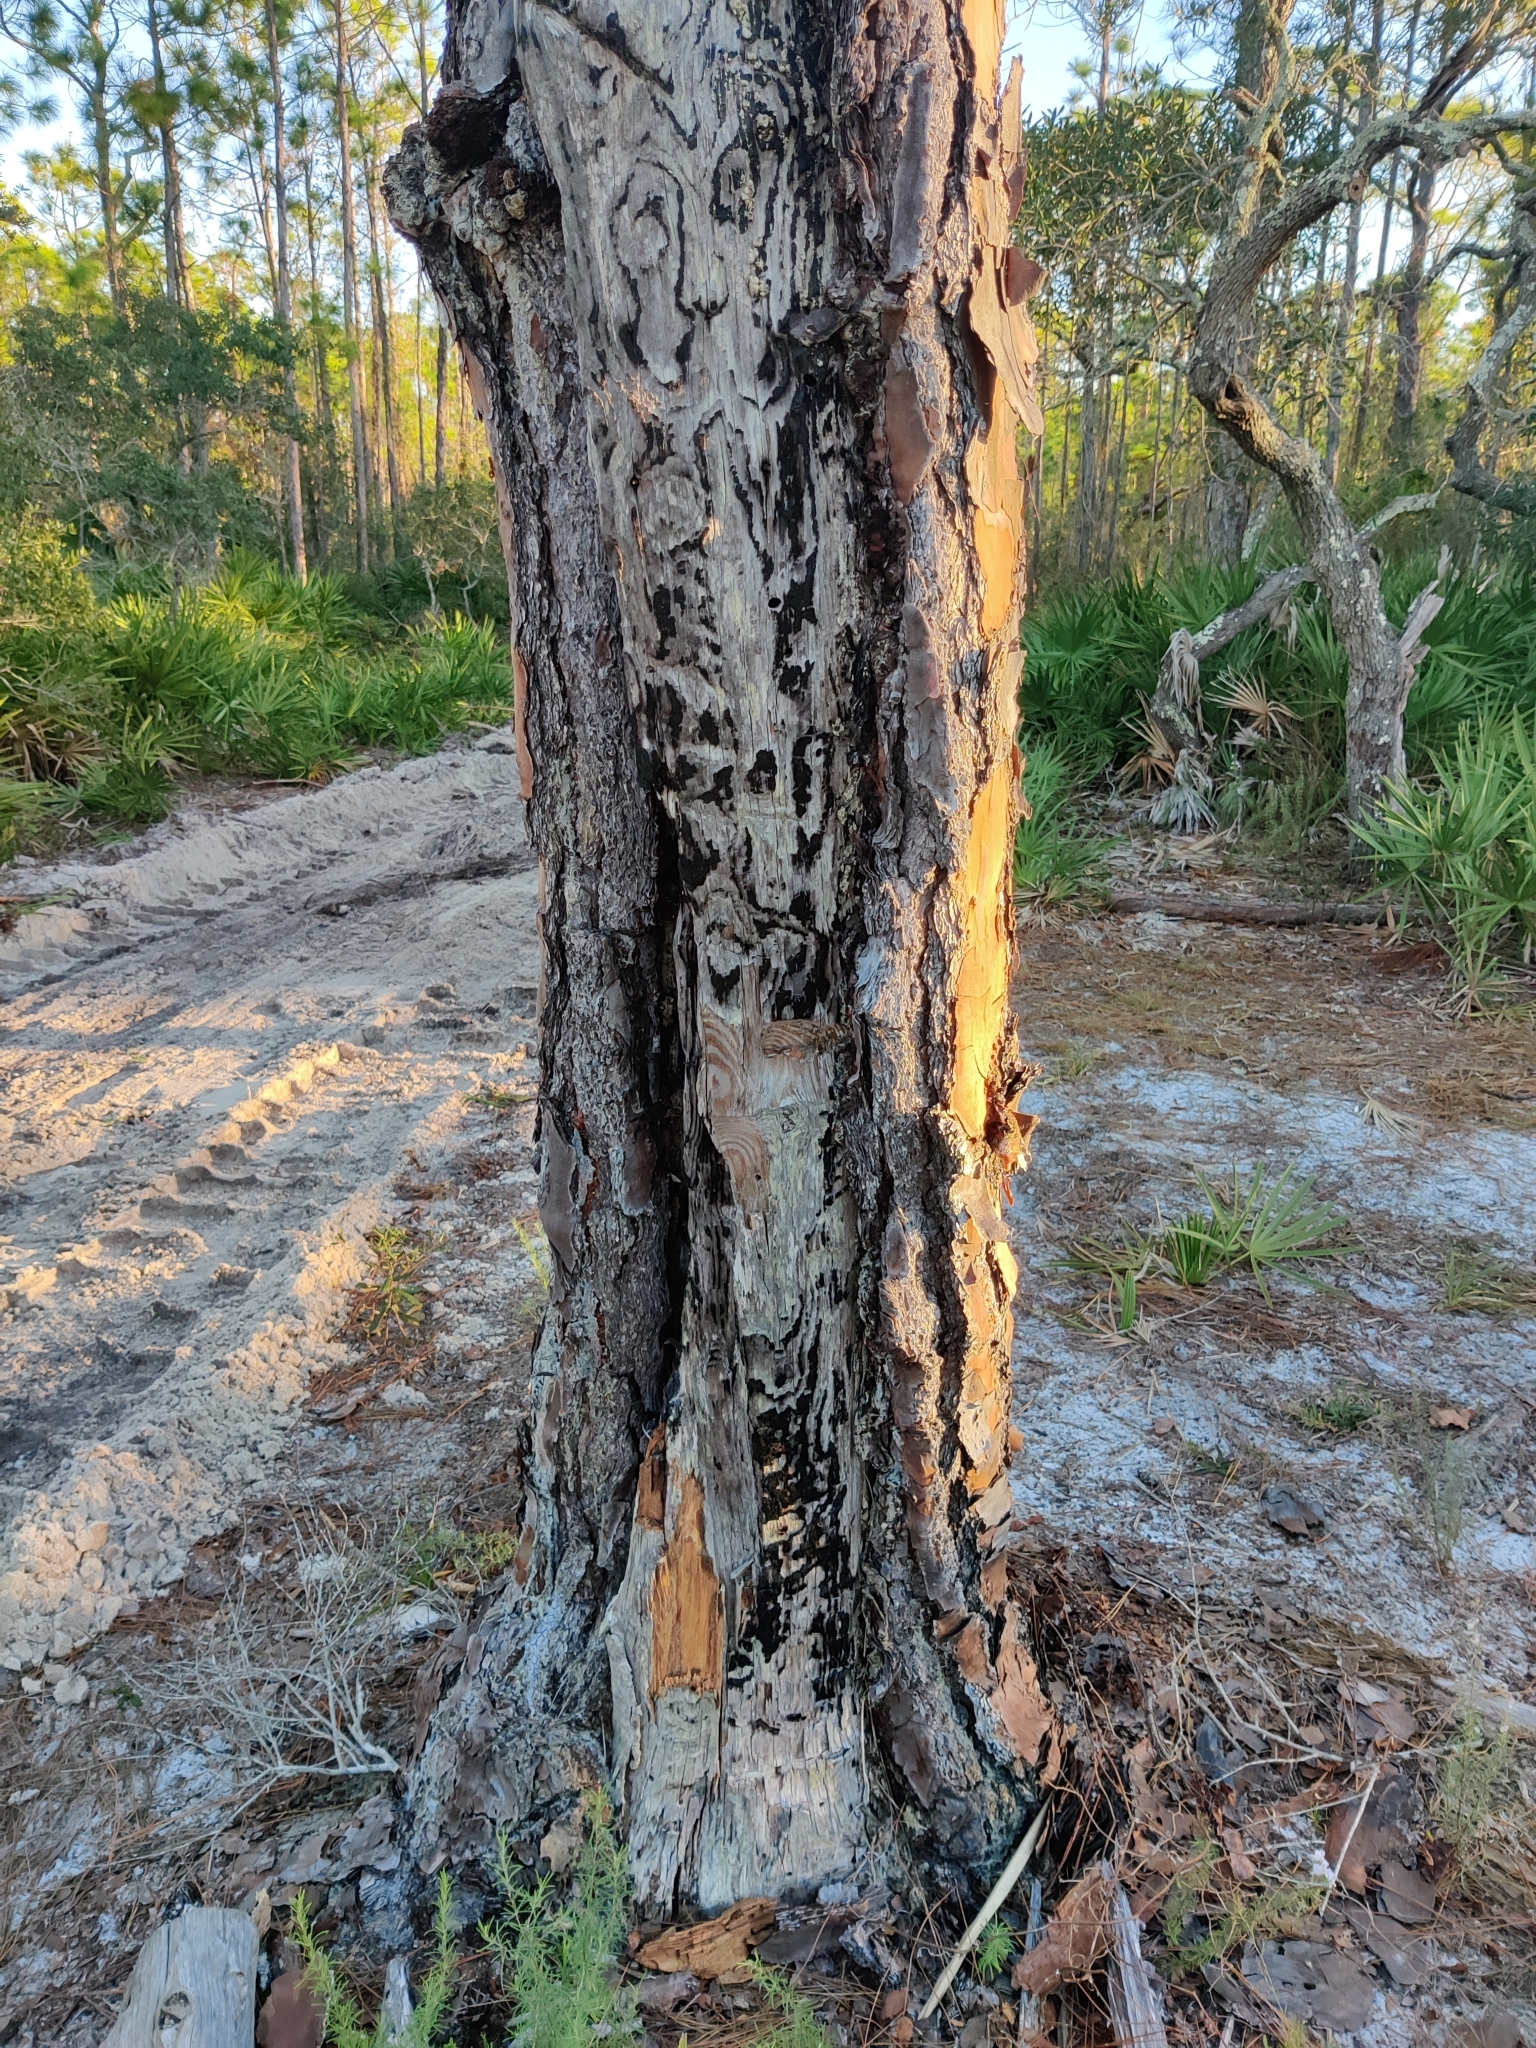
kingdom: Plantae
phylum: Tracheophyta
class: Pinopsida
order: Pinales
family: Pinaceae
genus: Pinus
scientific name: Pinus elliottii
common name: Slash pine
